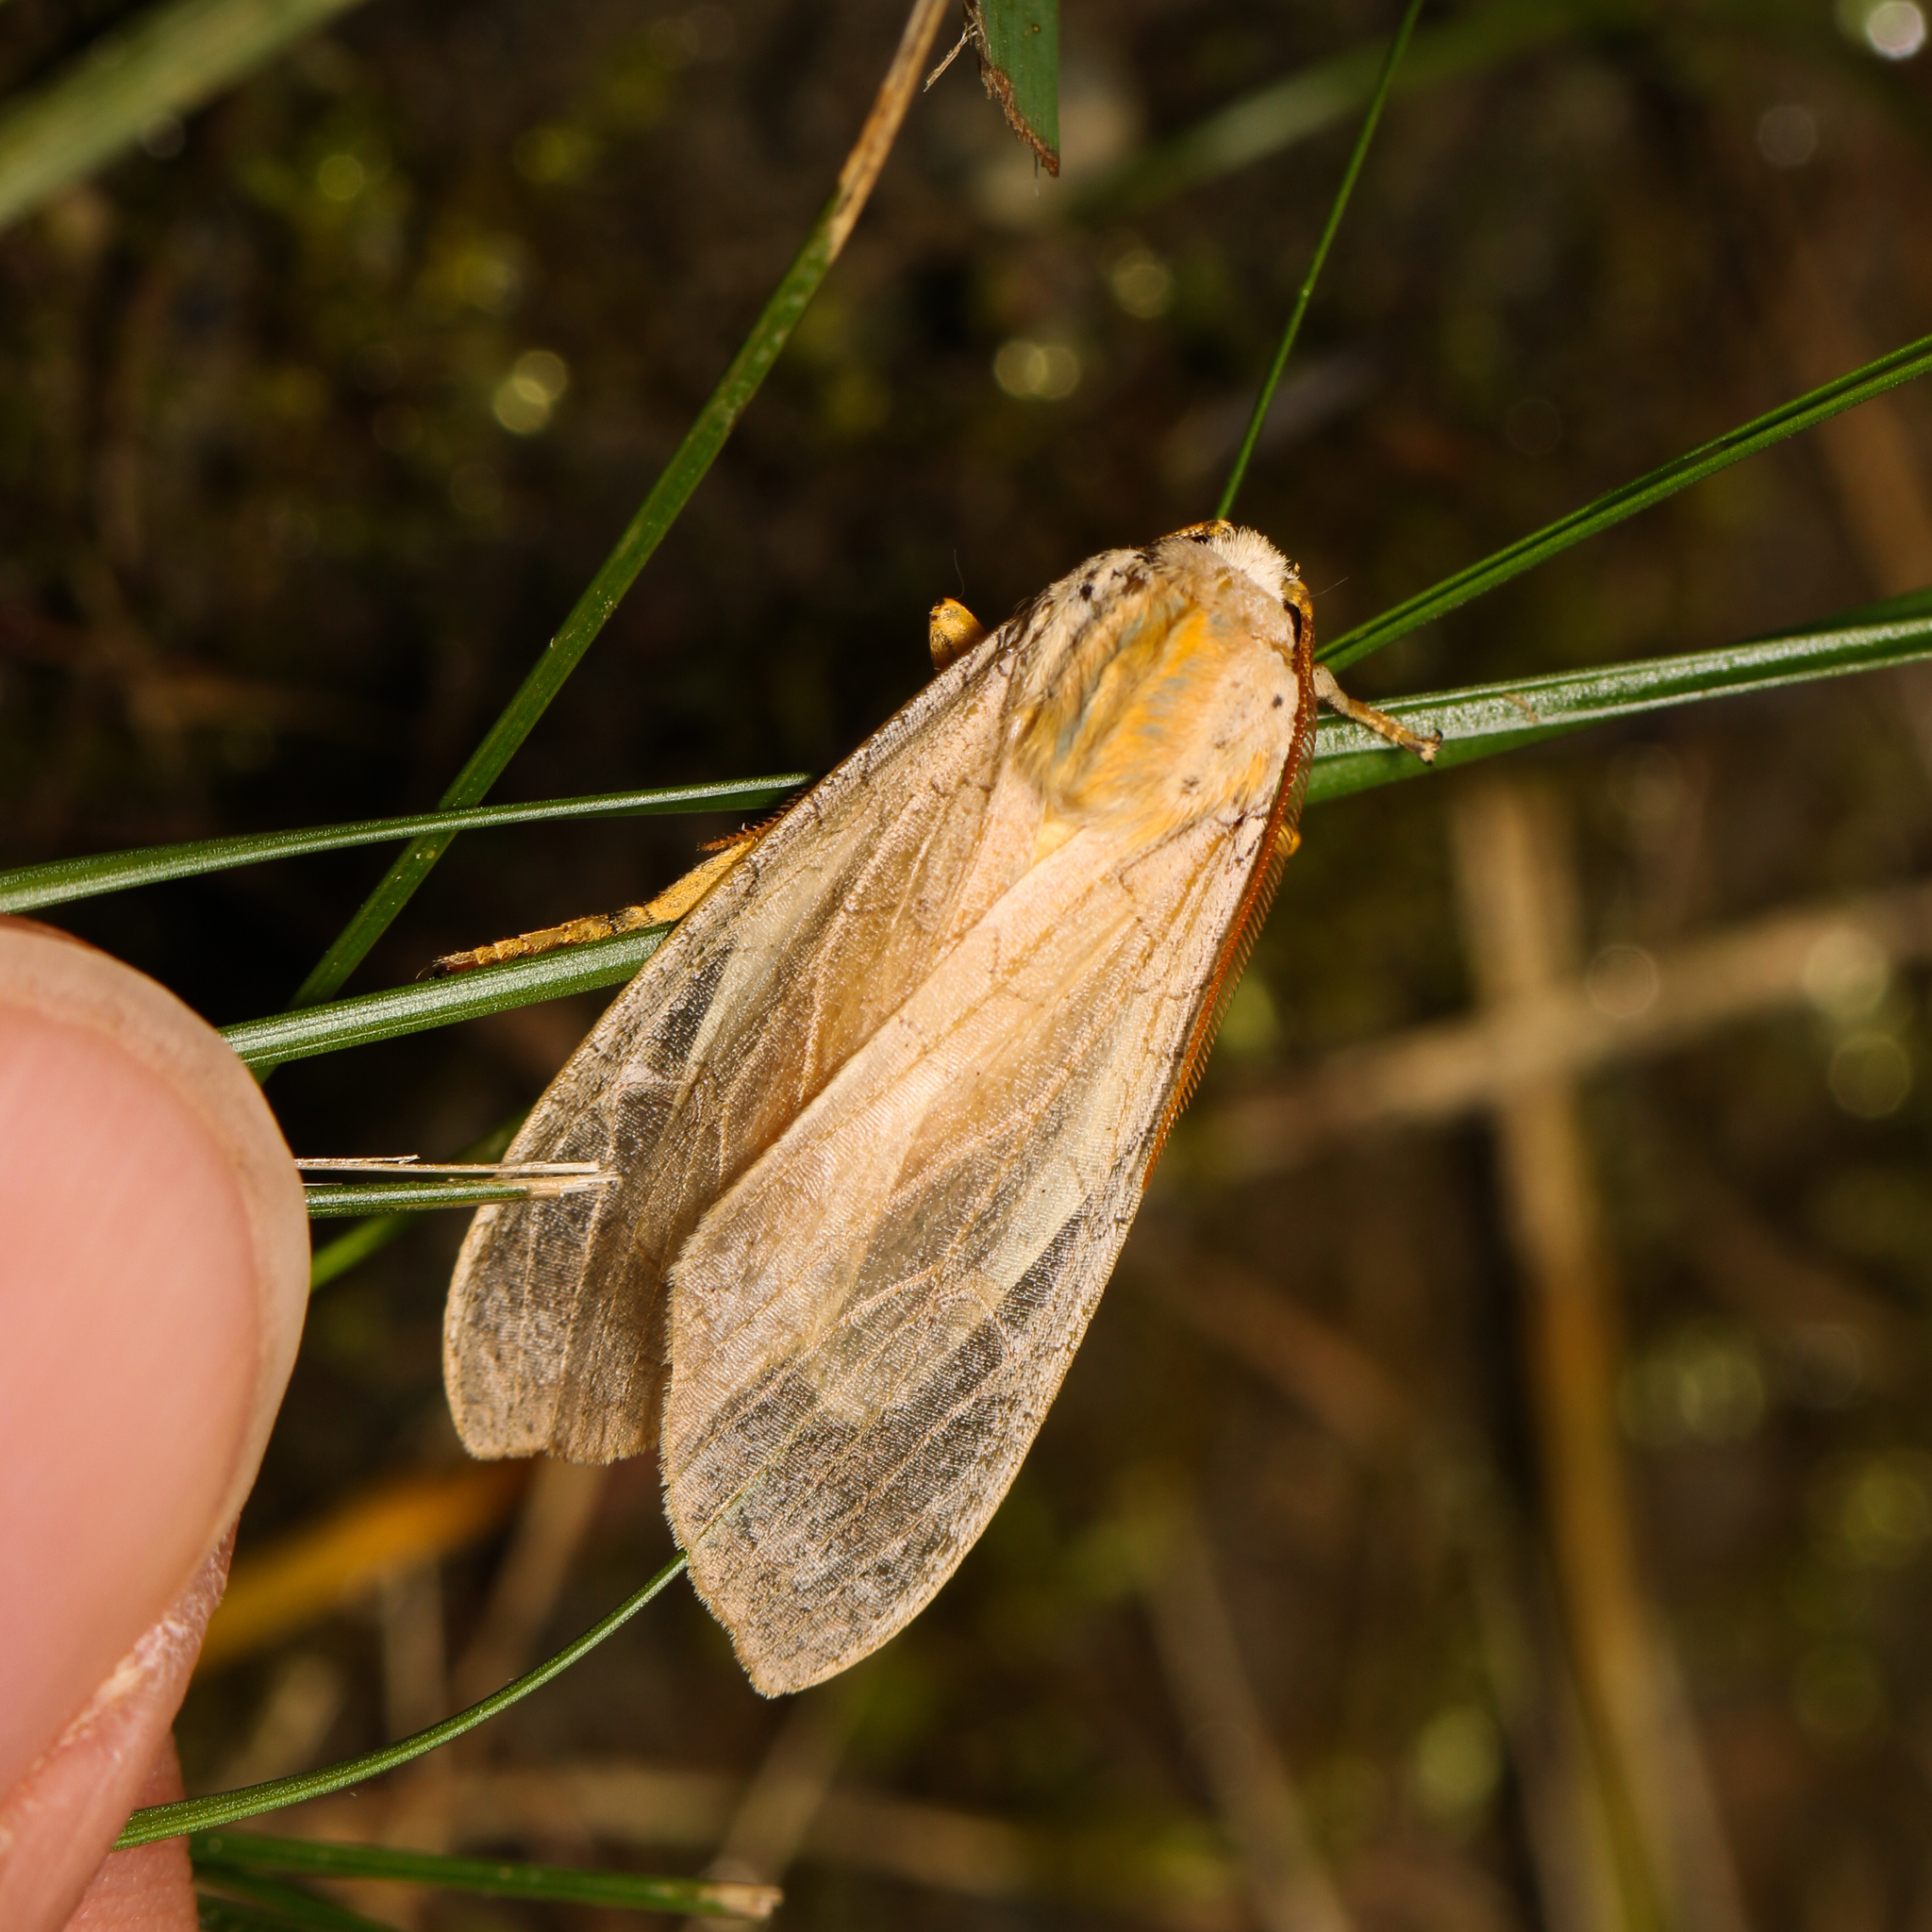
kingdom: Animalia
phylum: Arthropoda
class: Insecta
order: Lepidoptera
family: Erebidae
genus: Halysidota
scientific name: Halysidota
